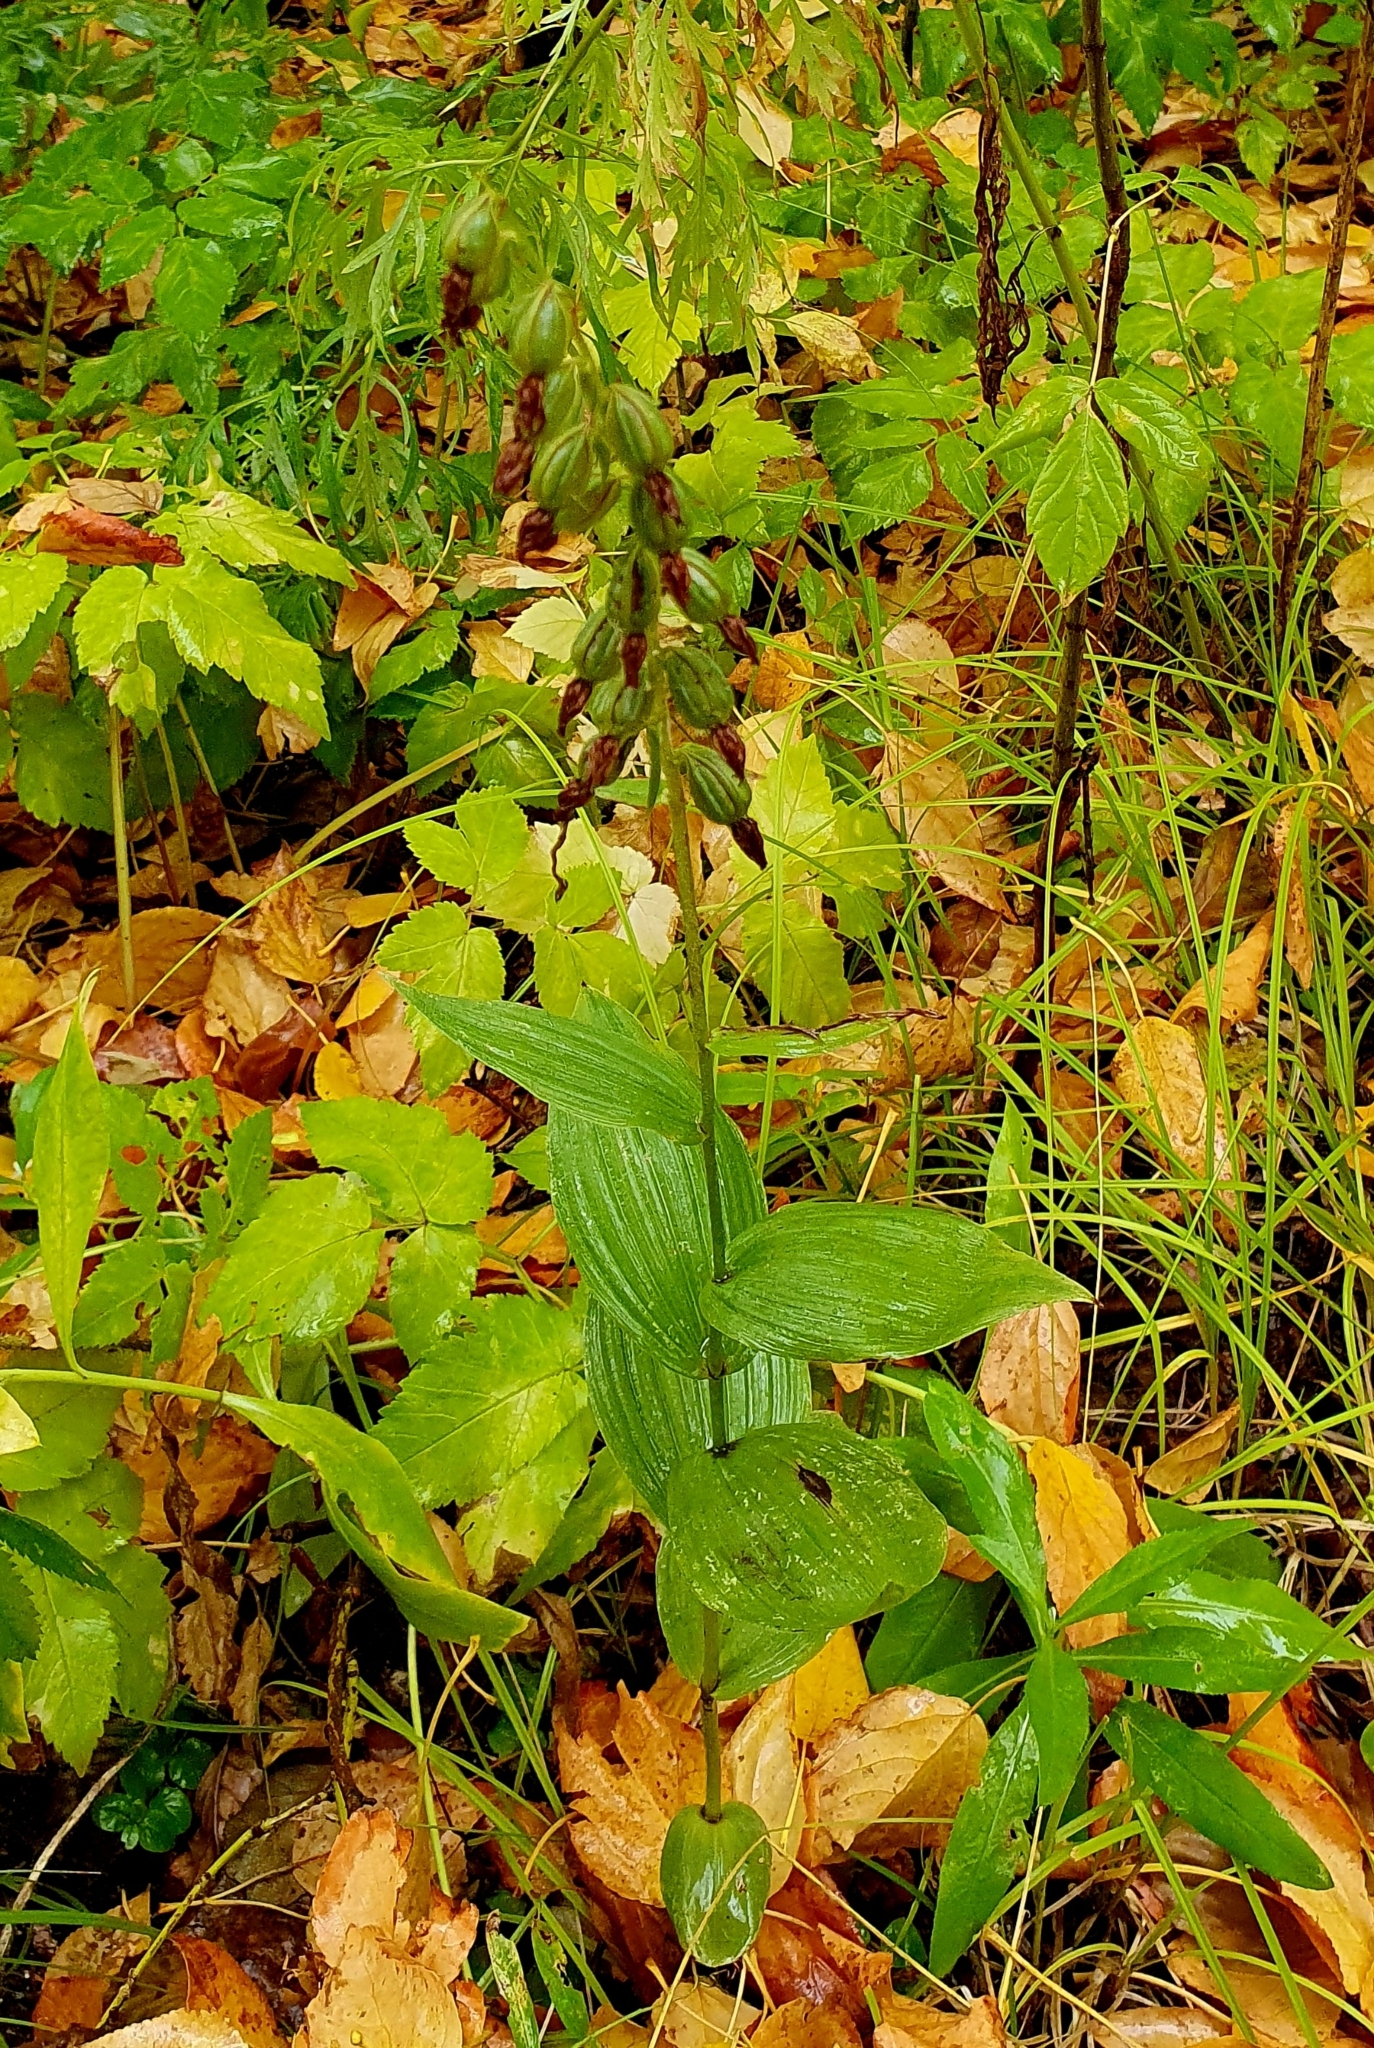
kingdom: Plantae
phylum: Tracheophyta
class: Liliopsida
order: Asparagales
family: Orchidaceae
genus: Epipactis
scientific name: Epipactis helleborine
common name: Broad-leaved helleborine
